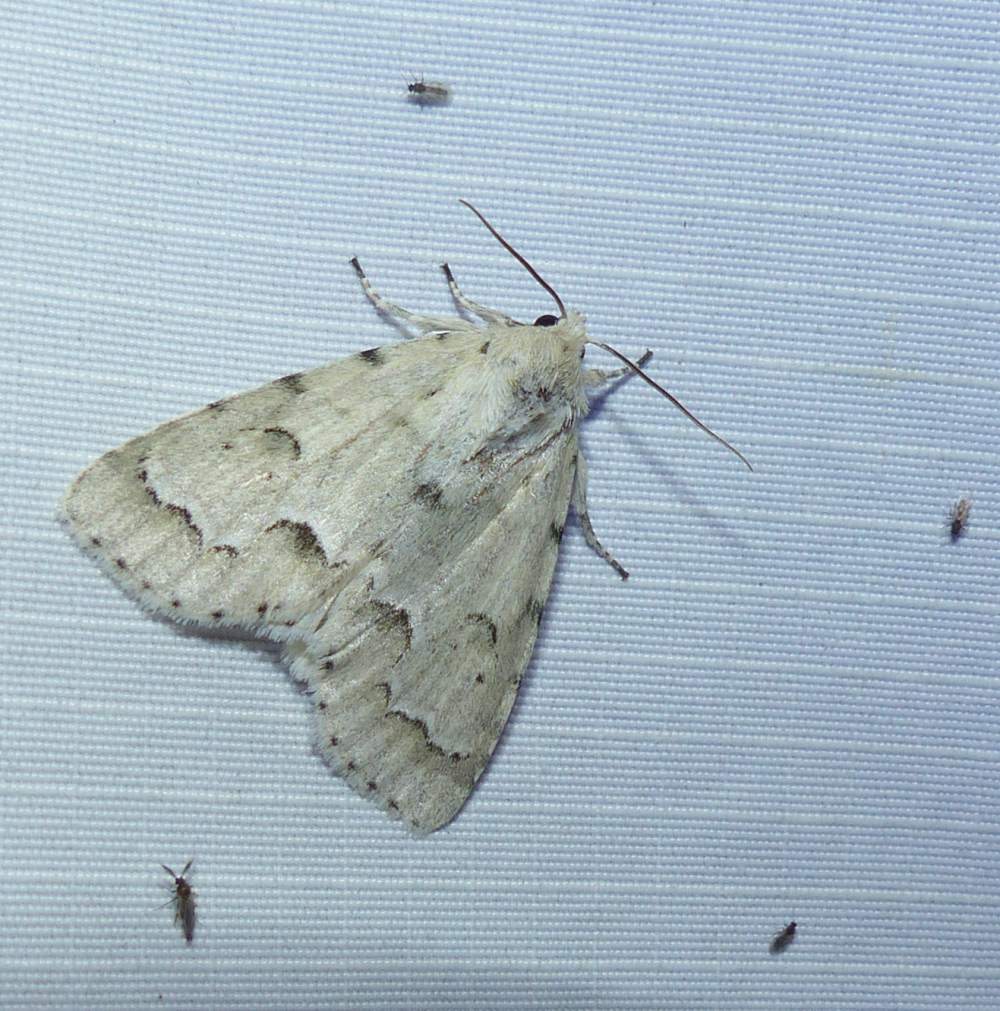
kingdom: Animalia
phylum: Arthropoda
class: Insecta
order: Lepidoptera
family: Noctuidae
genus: Acronicta
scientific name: Acronicta innotata
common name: Unmarked dagger
